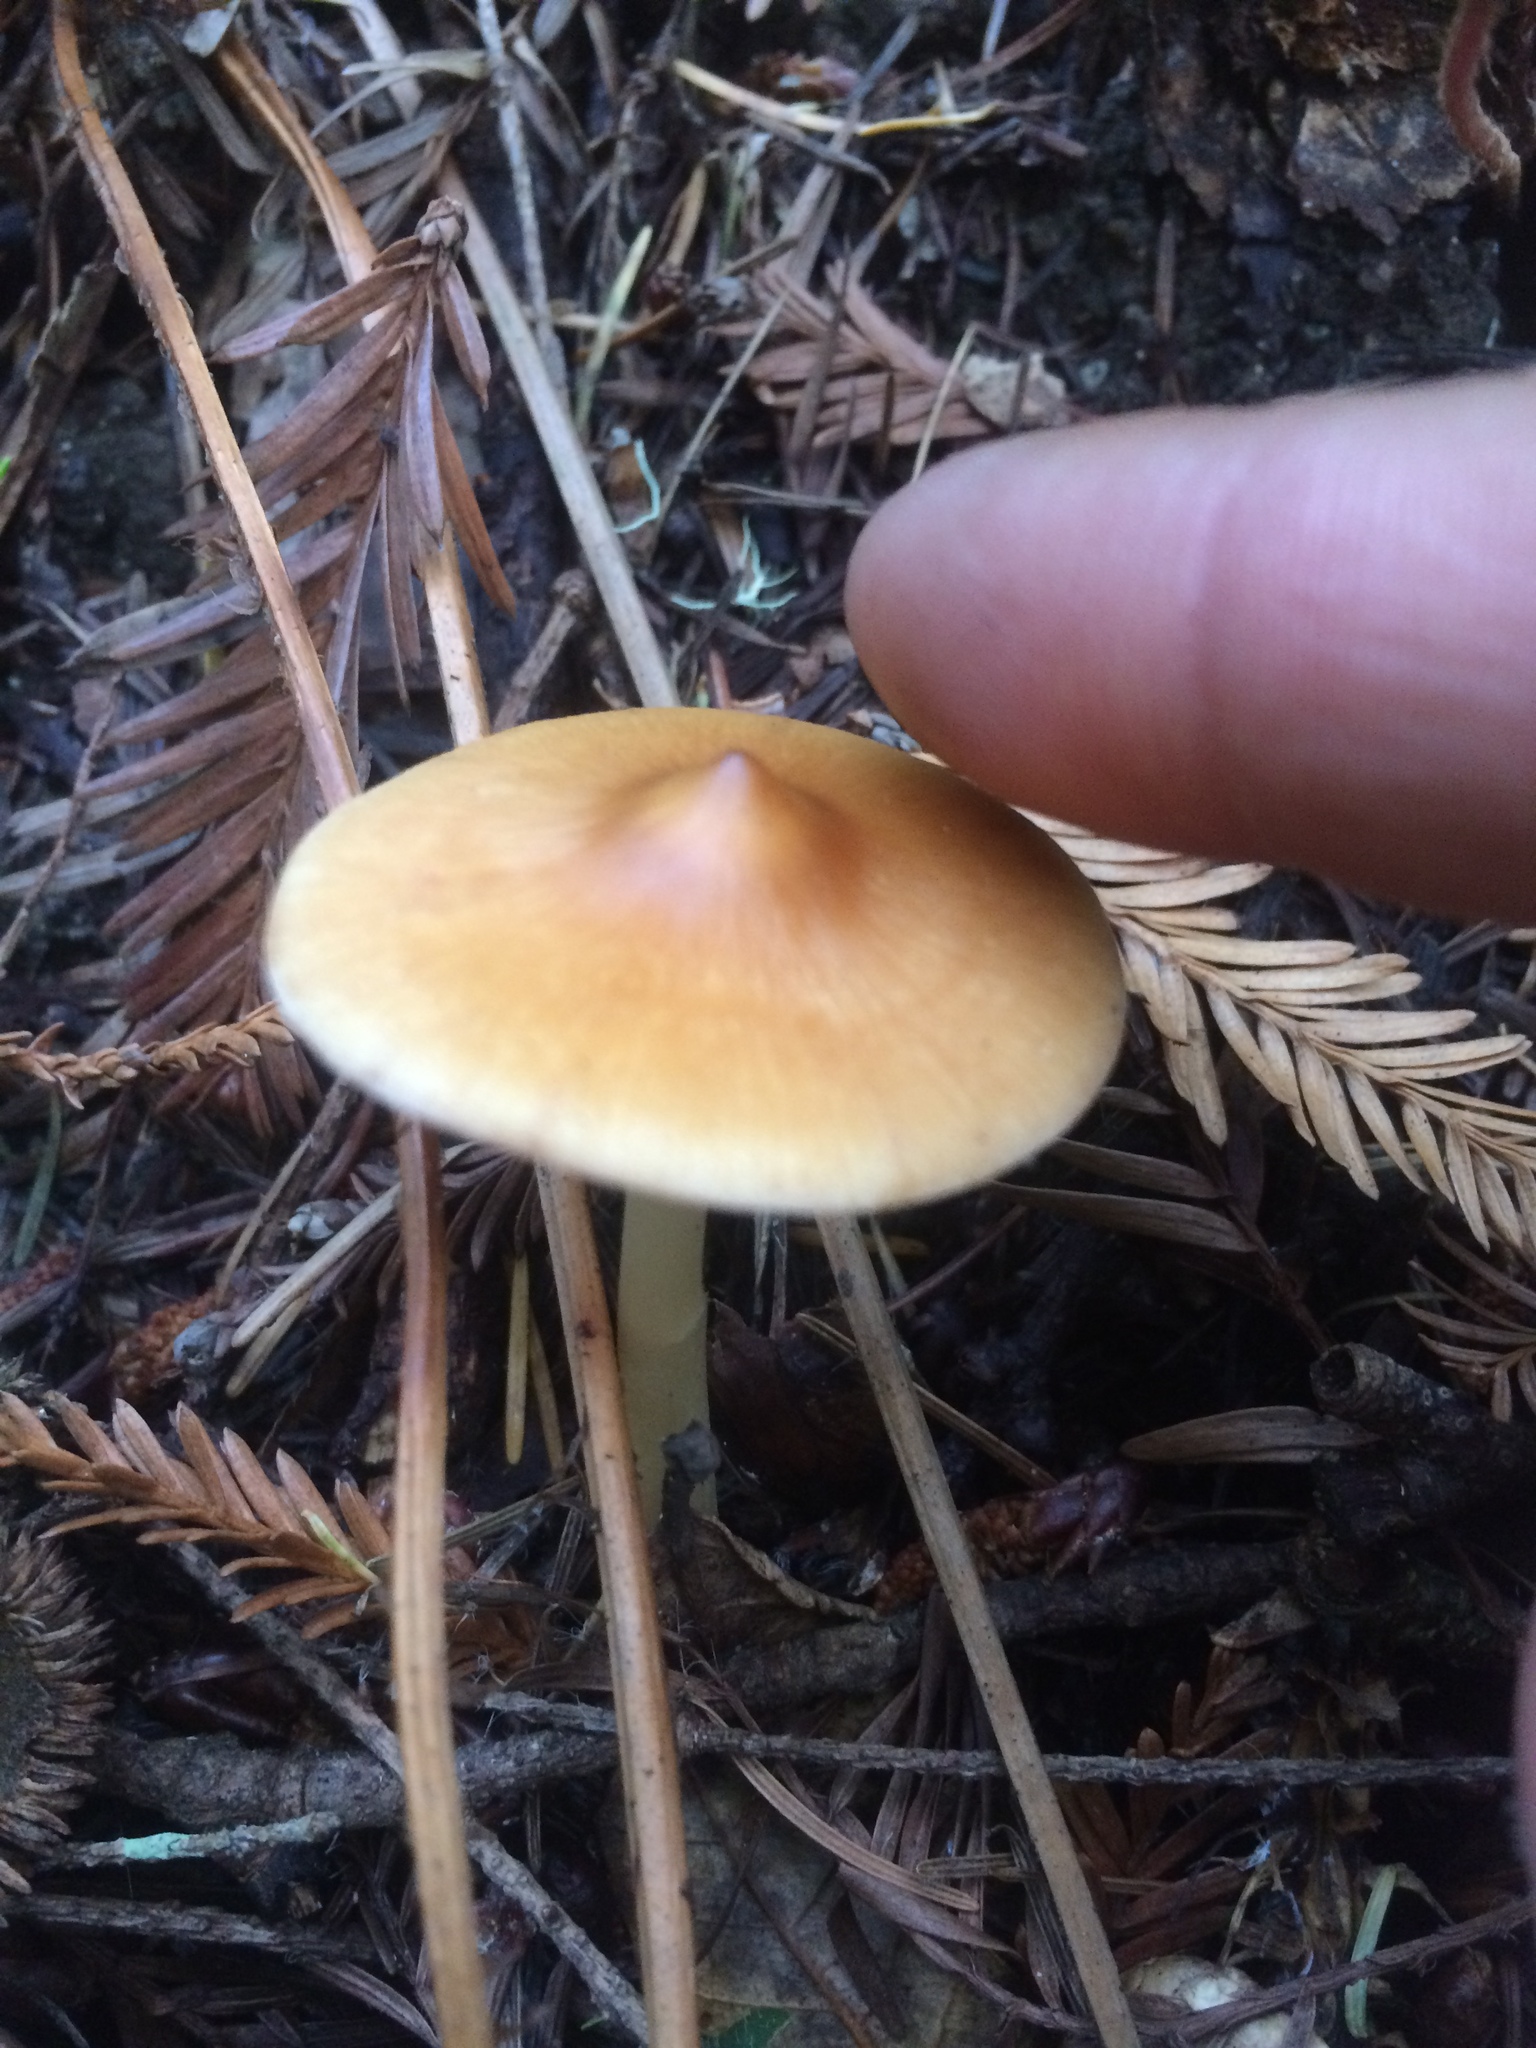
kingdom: Fungi
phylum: Basidiomycota
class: Agaricomycetes
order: Agaricales
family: Tricholomataceae
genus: Caulorhiza
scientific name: Caulorhiza umbonata
